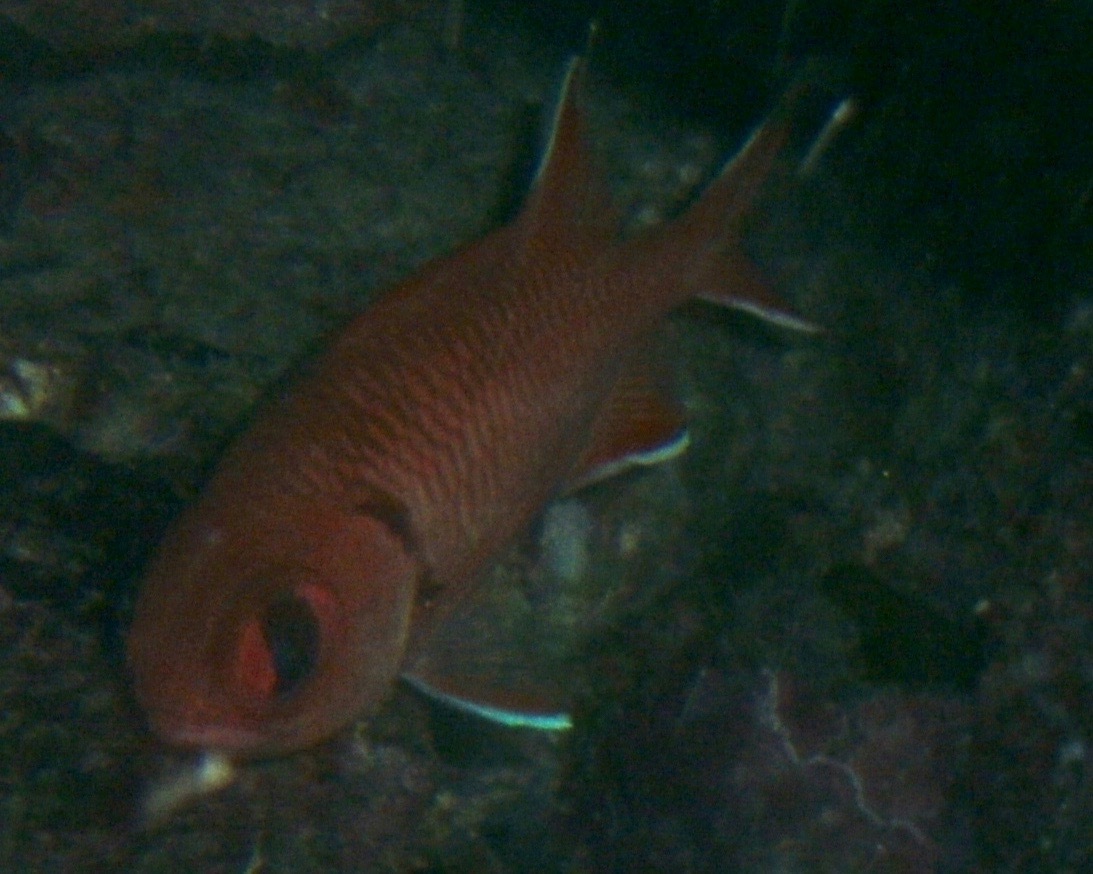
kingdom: Animalia
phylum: Chordata
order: Beryciformes
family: Holocentridae
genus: Myripristis
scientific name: Myripristis murdjan
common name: Big-eye soldierfish
